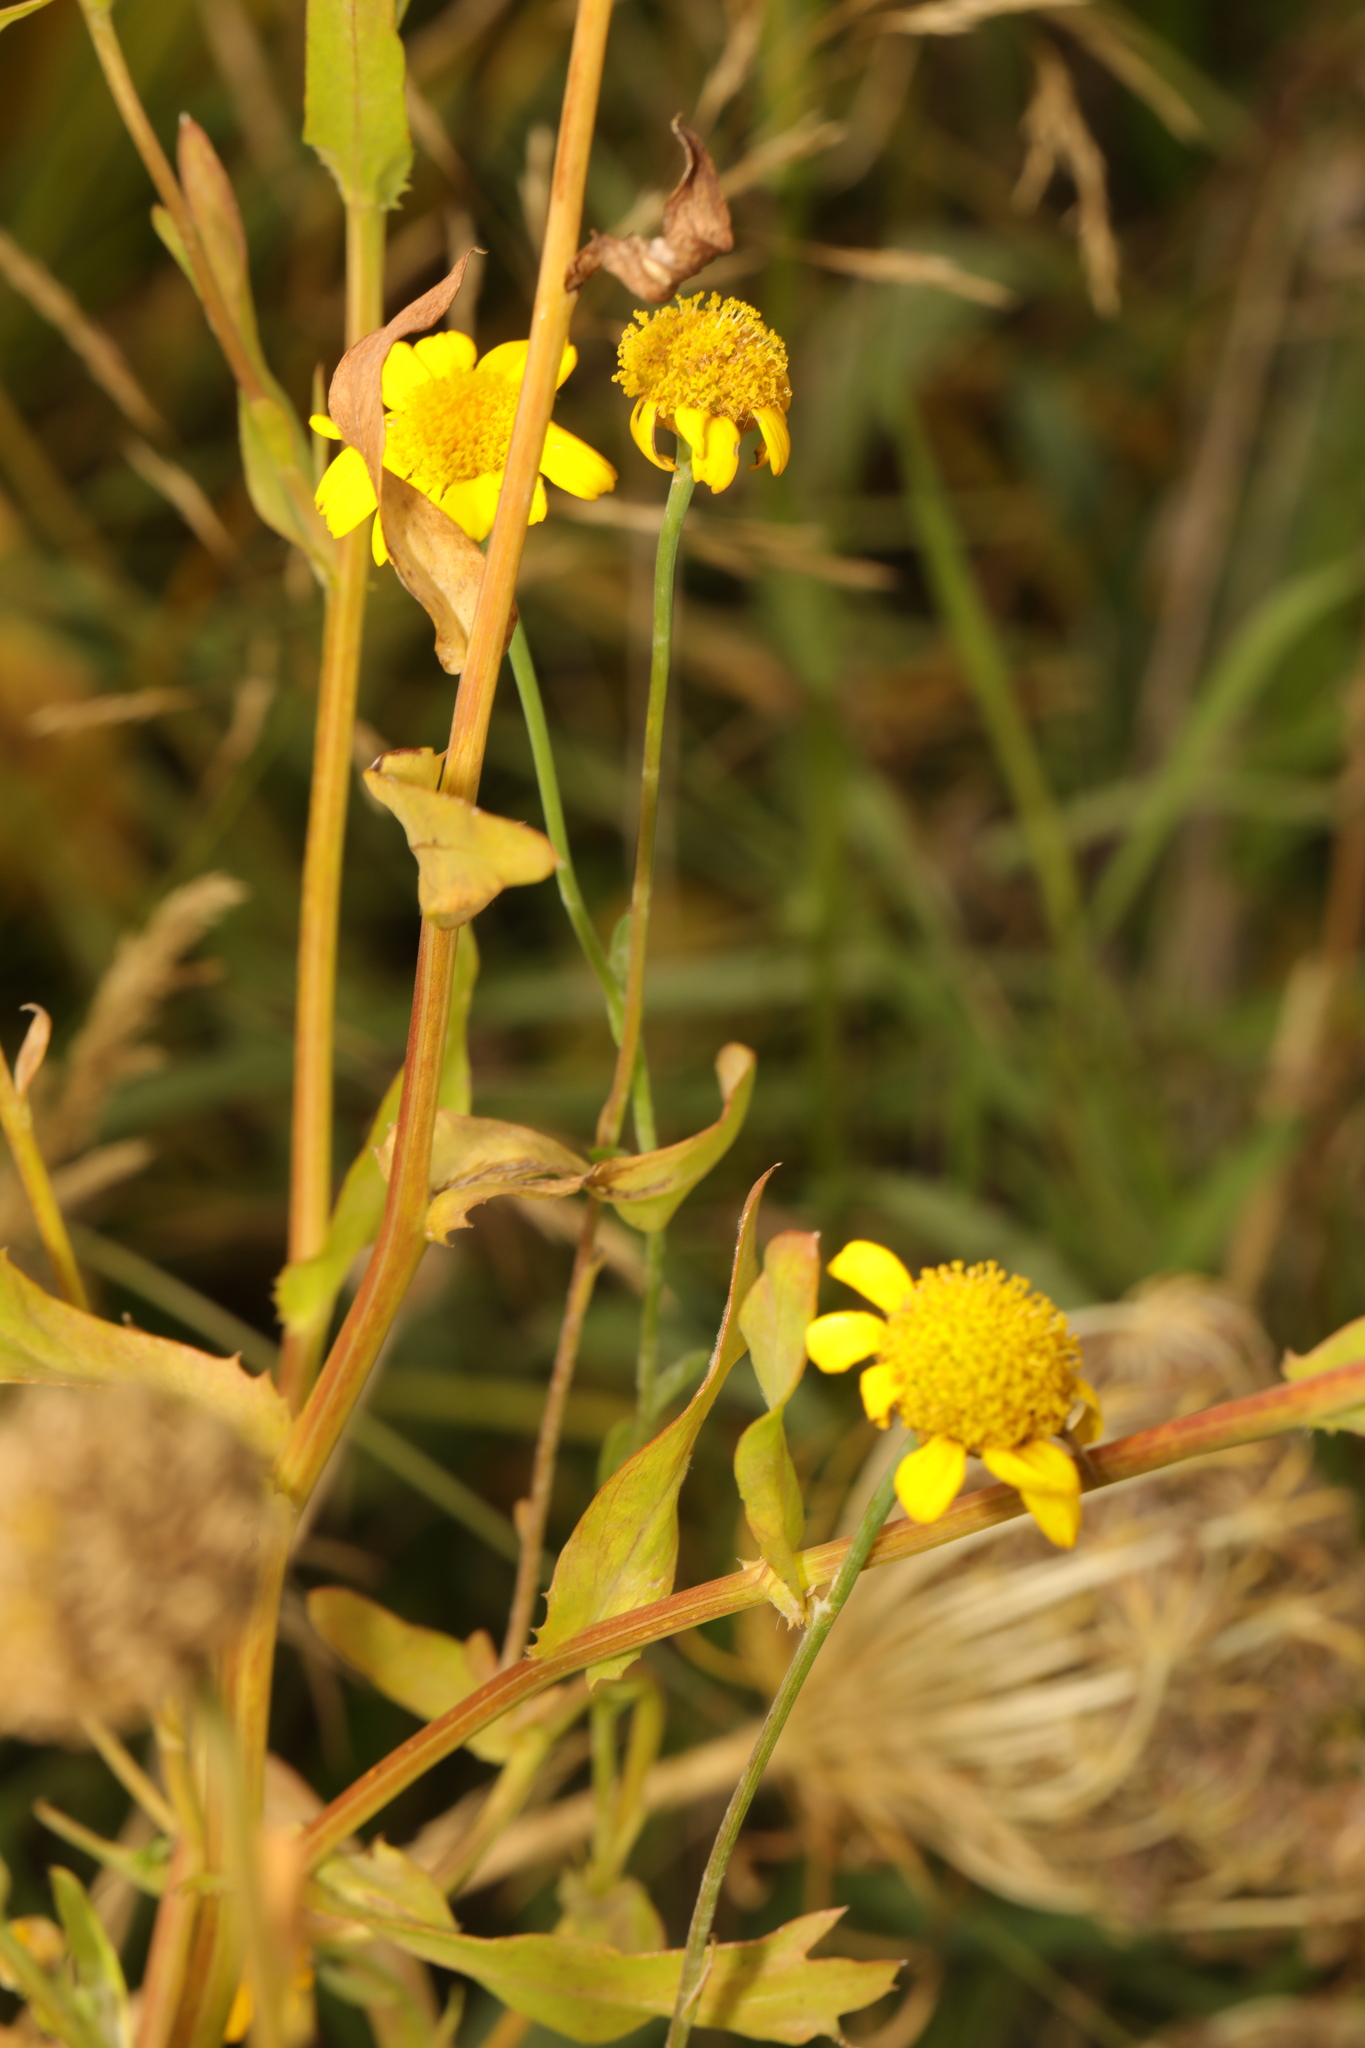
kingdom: Plantae
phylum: Tracheophyta
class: Magnoliopsida
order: Asterales
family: Asteraceae
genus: Glebionis
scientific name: Glebionis segetum
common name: Corndaisy
